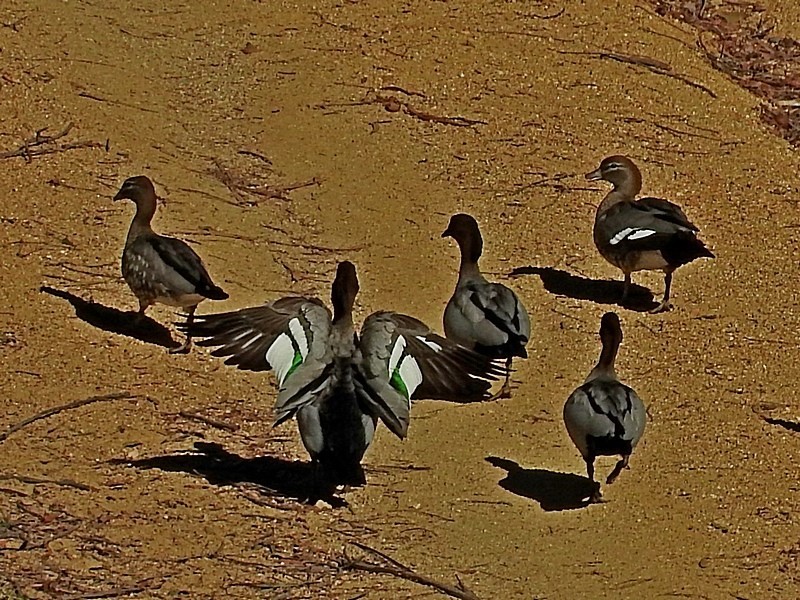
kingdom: Animalia
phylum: Chordata
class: Aves
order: Anseriformes
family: Anatidae
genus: Chenonetta
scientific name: Chenonetta jubata
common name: Maned duck
